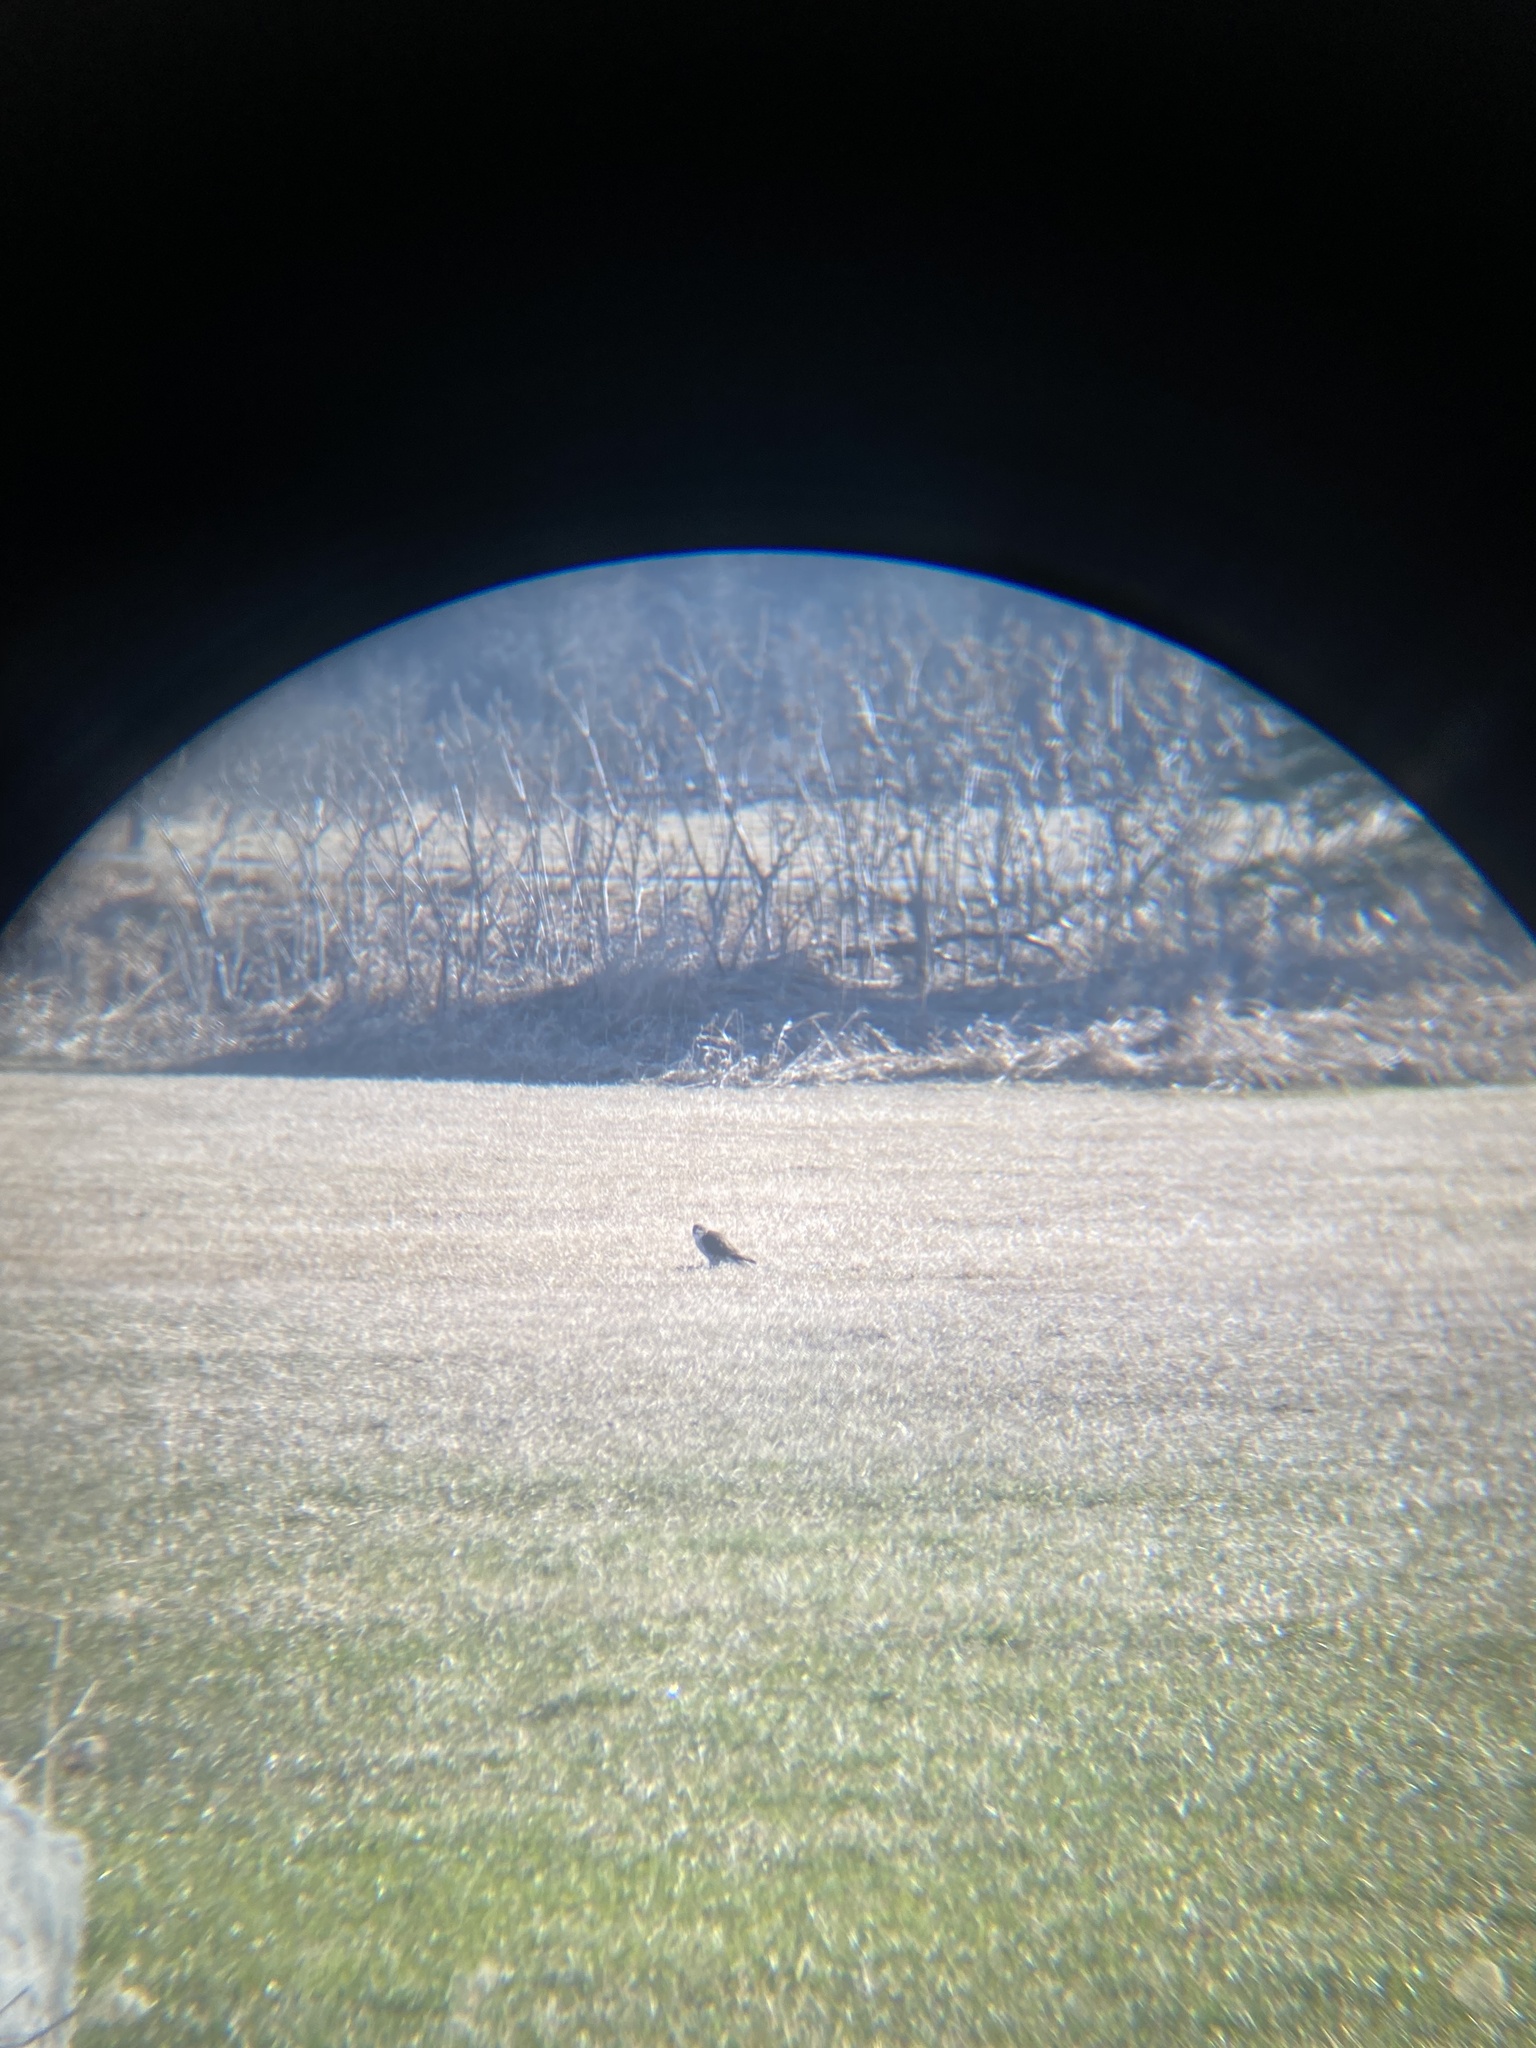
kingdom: Animalia
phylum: Chordata
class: Aves
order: Falconiformes
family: Falconidae
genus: Falco
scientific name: Falco columbarius
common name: Merlin
